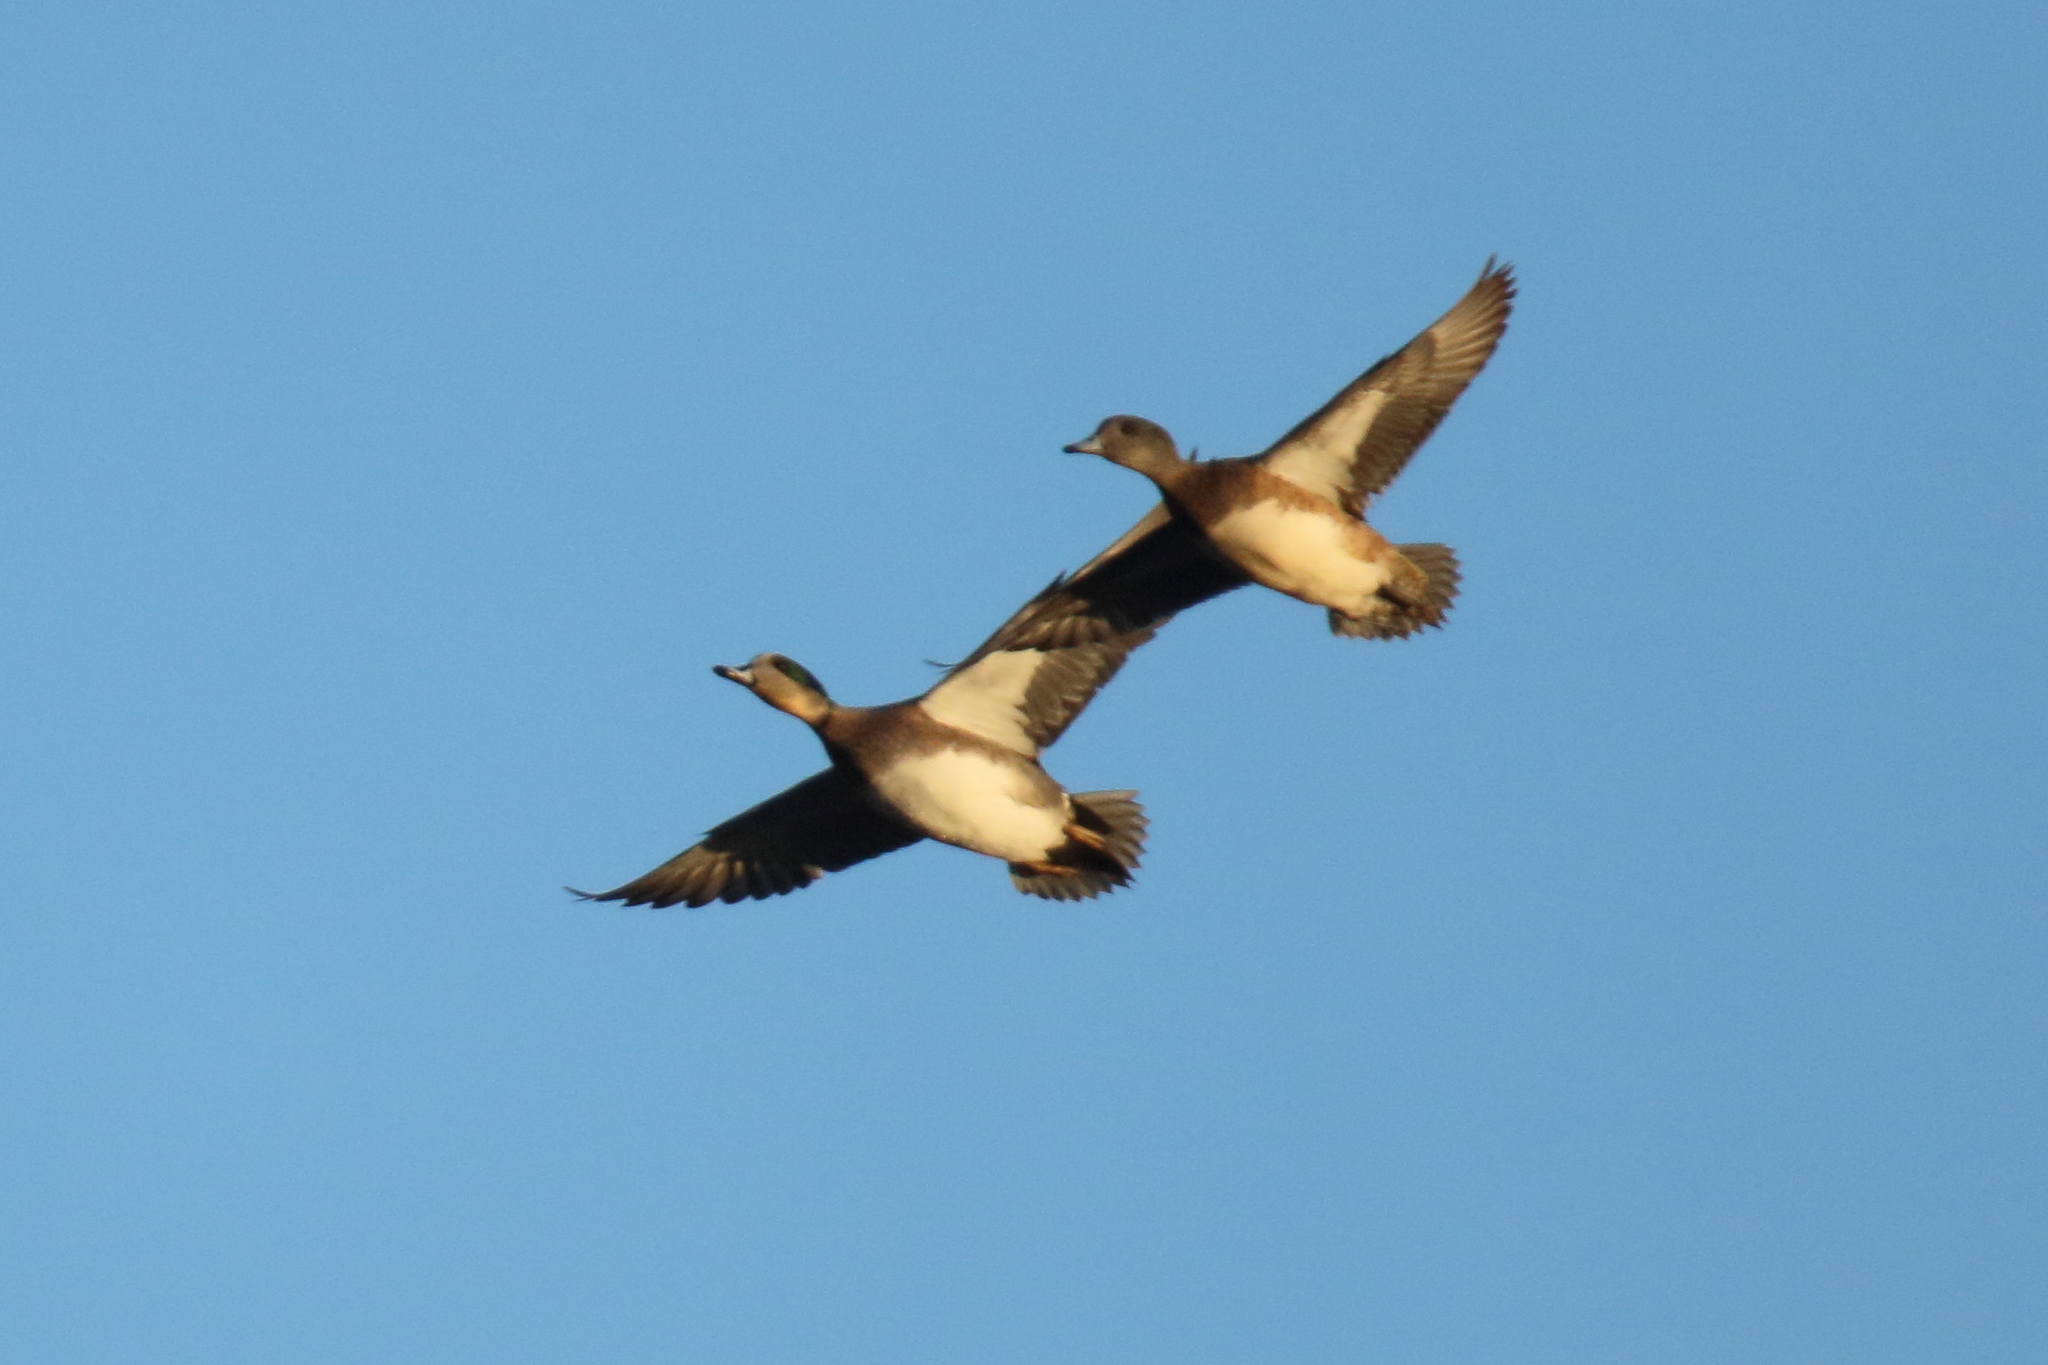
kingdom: Animalia
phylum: Chordata
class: Aves
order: Anseriformes
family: Anatidae
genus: Mareca
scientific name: Mareca americana
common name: American wigeon
